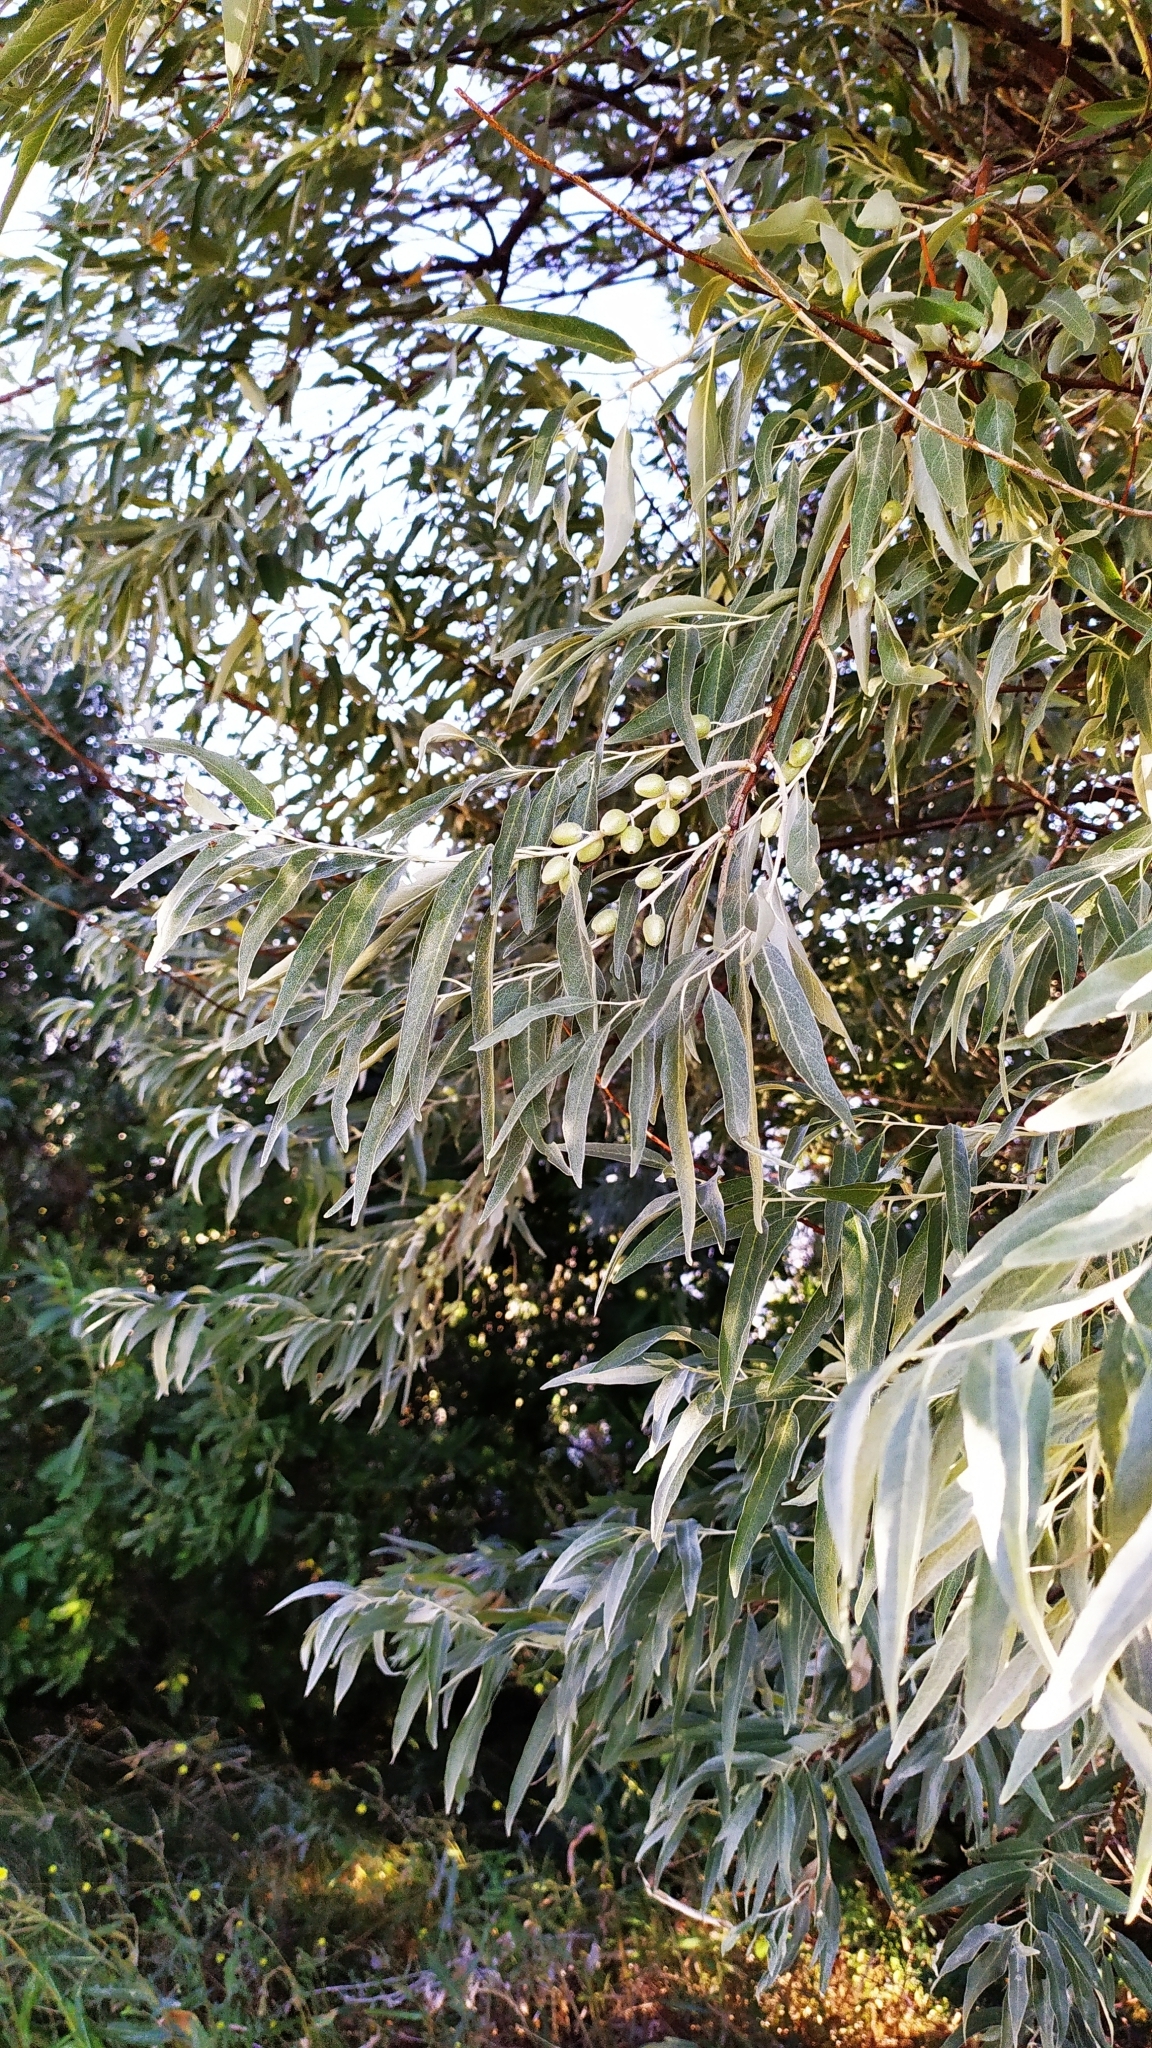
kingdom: Plantae
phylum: Tracheophyta
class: Magnoliopsida
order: Rosales
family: Elaeagnaceae
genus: Elaeagnus
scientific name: Elaeagnus angustifolia
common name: Russian olive
